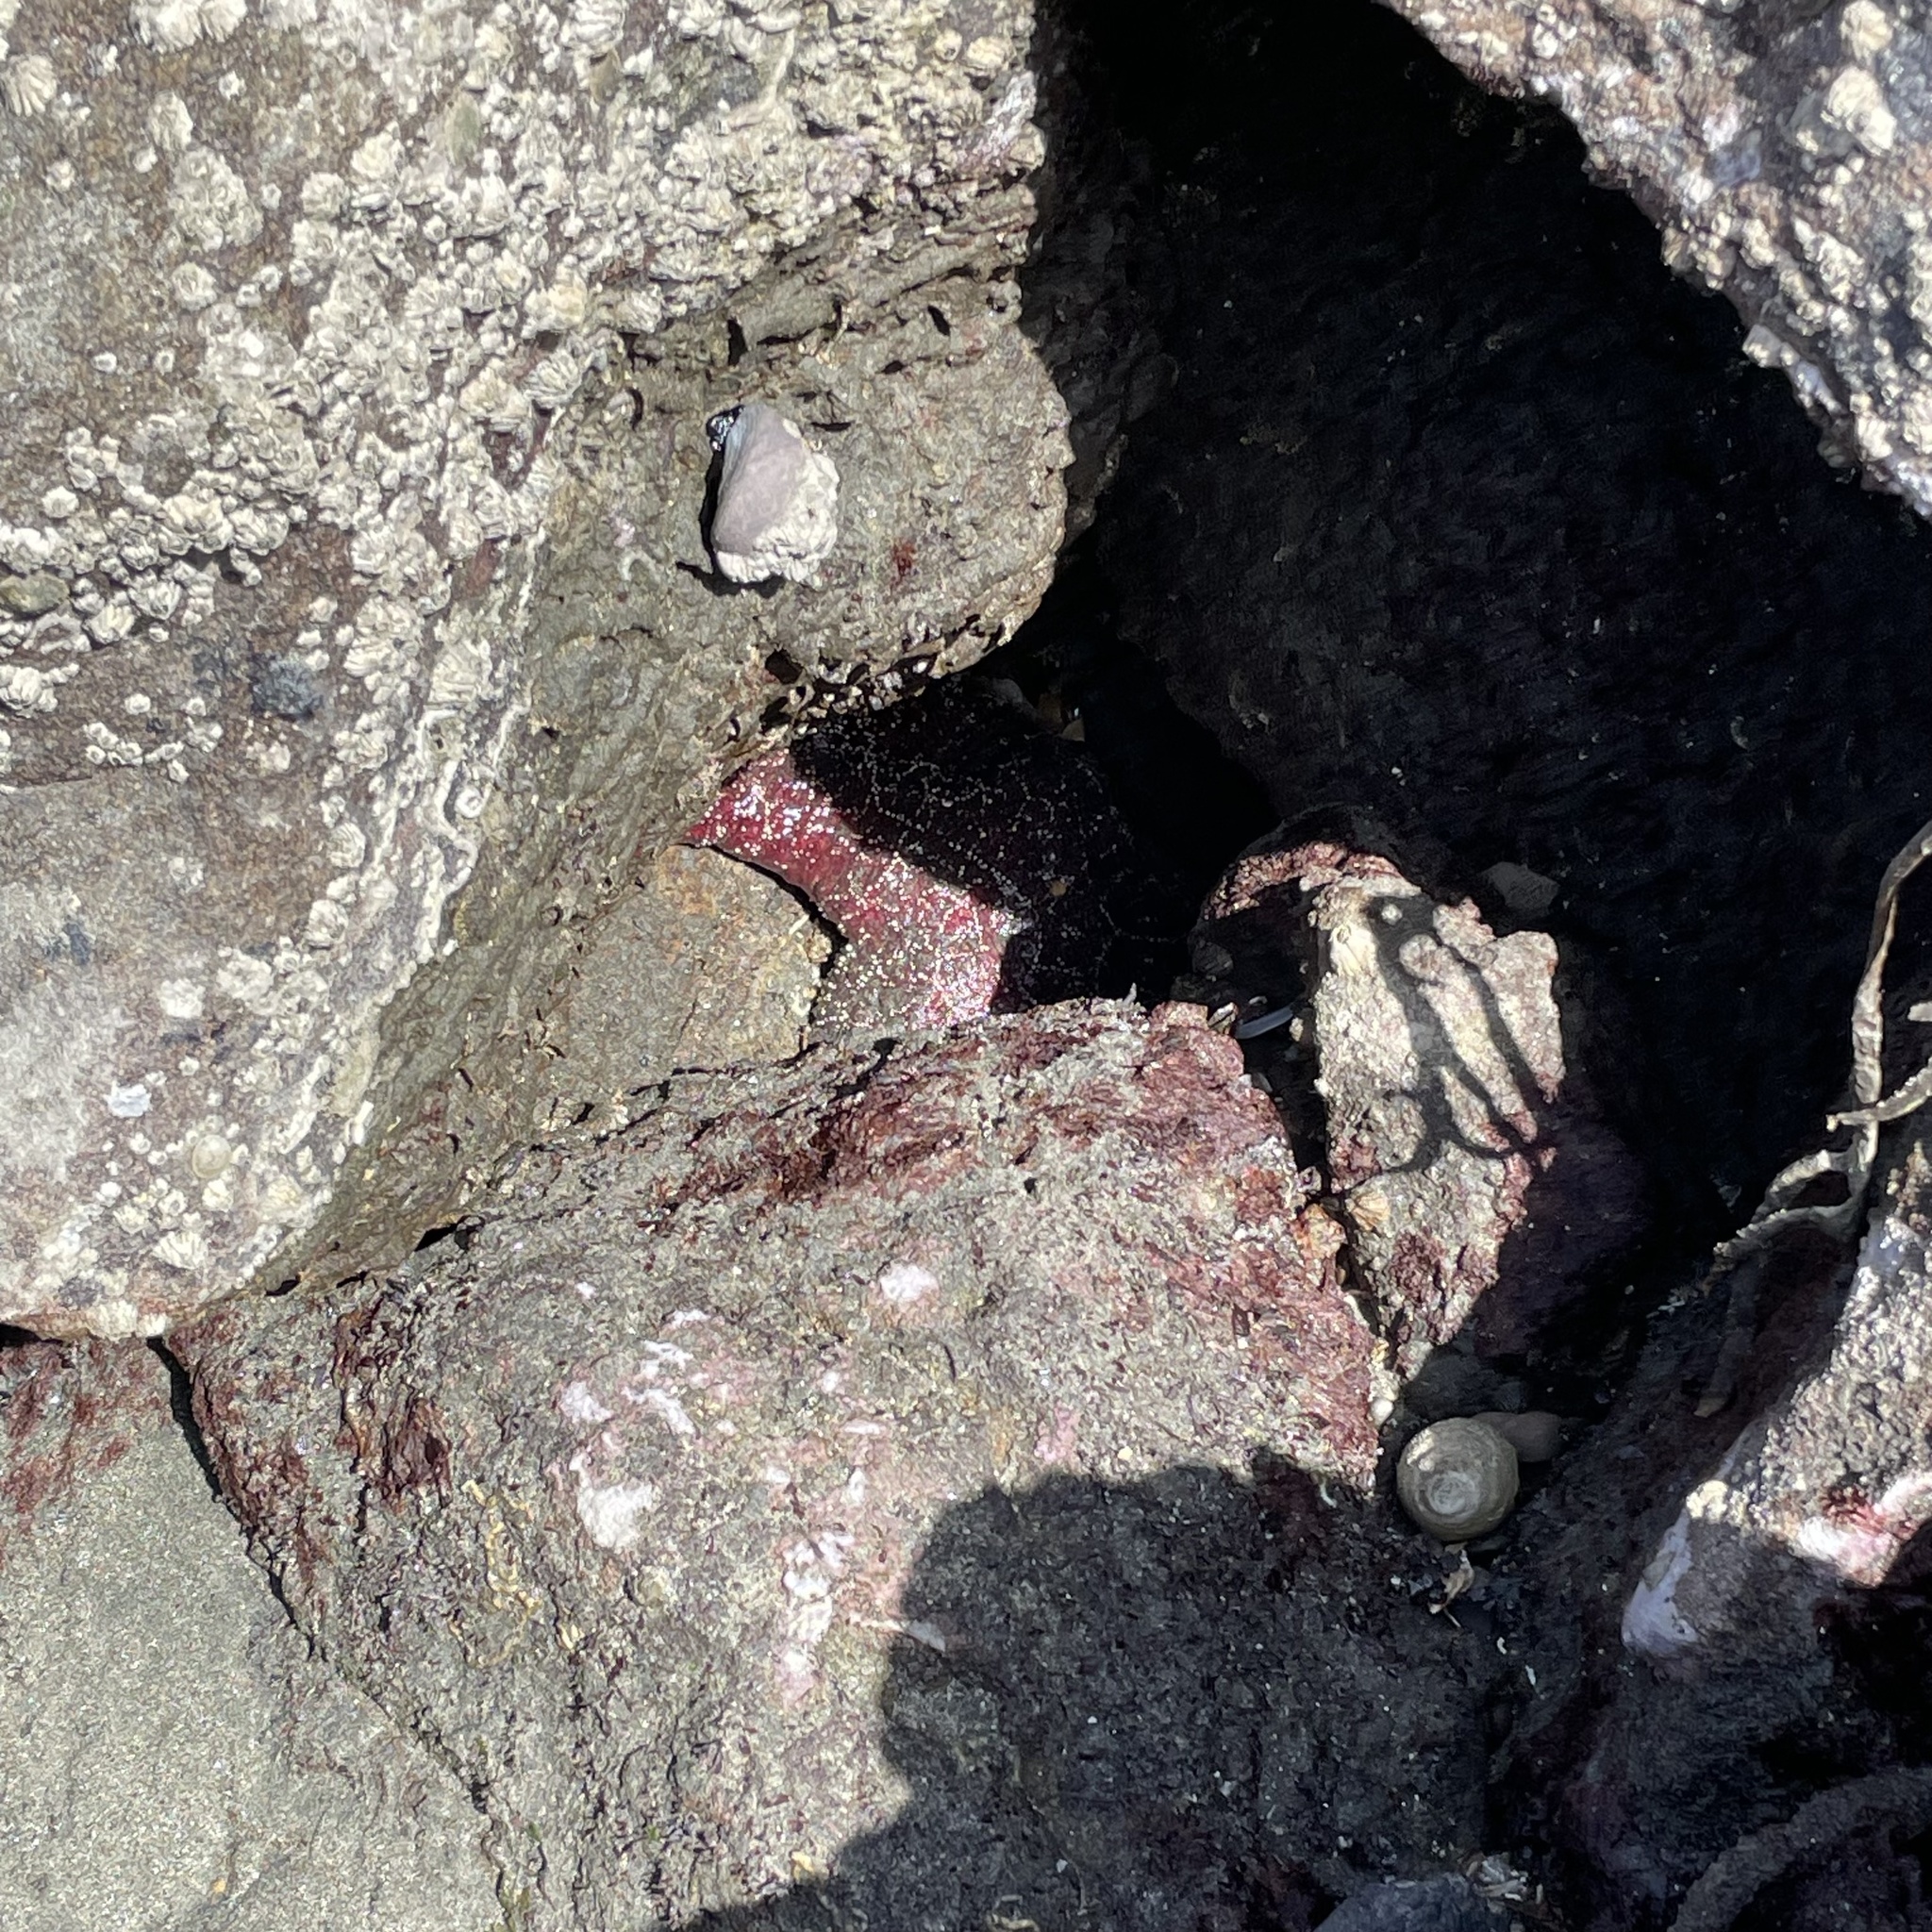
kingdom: Animalia
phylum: Echinodermata
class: Asteroidea
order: Forcipulatida
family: Asteriidae
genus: Pisaster
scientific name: Pisaster ochraceus
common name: Ochre stars
